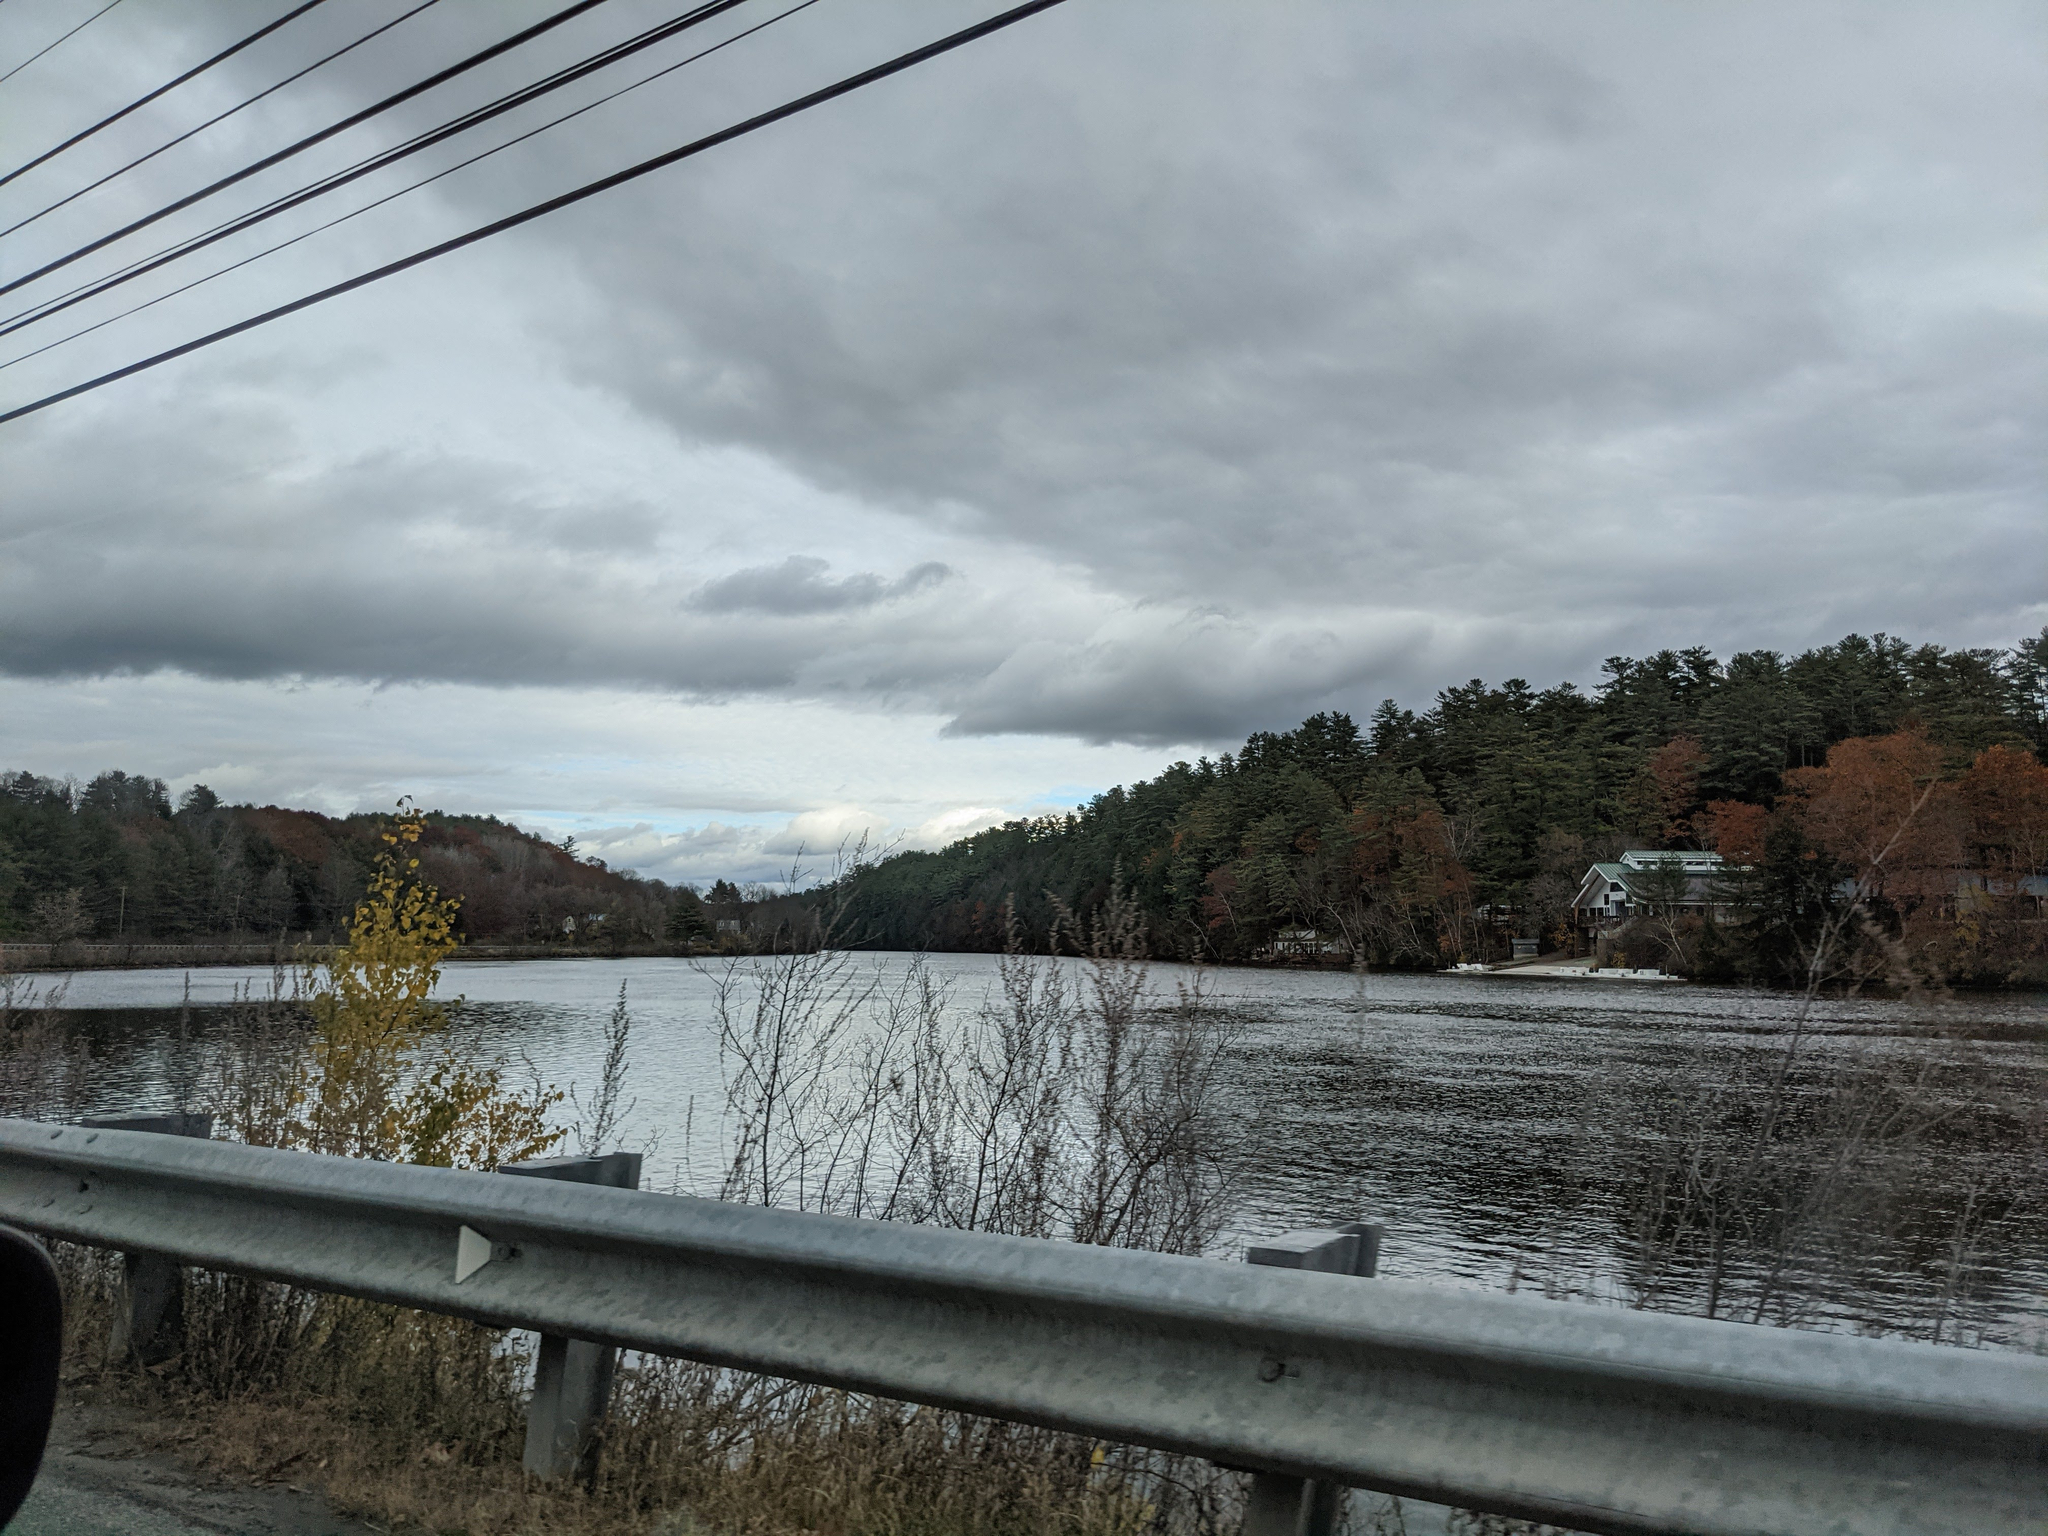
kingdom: Plantae
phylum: Tracheophyta
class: Pinopsida
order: Pinales
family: Pinaceae
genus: Pinus
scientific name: Pinus strobus
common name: Weymouth pine
